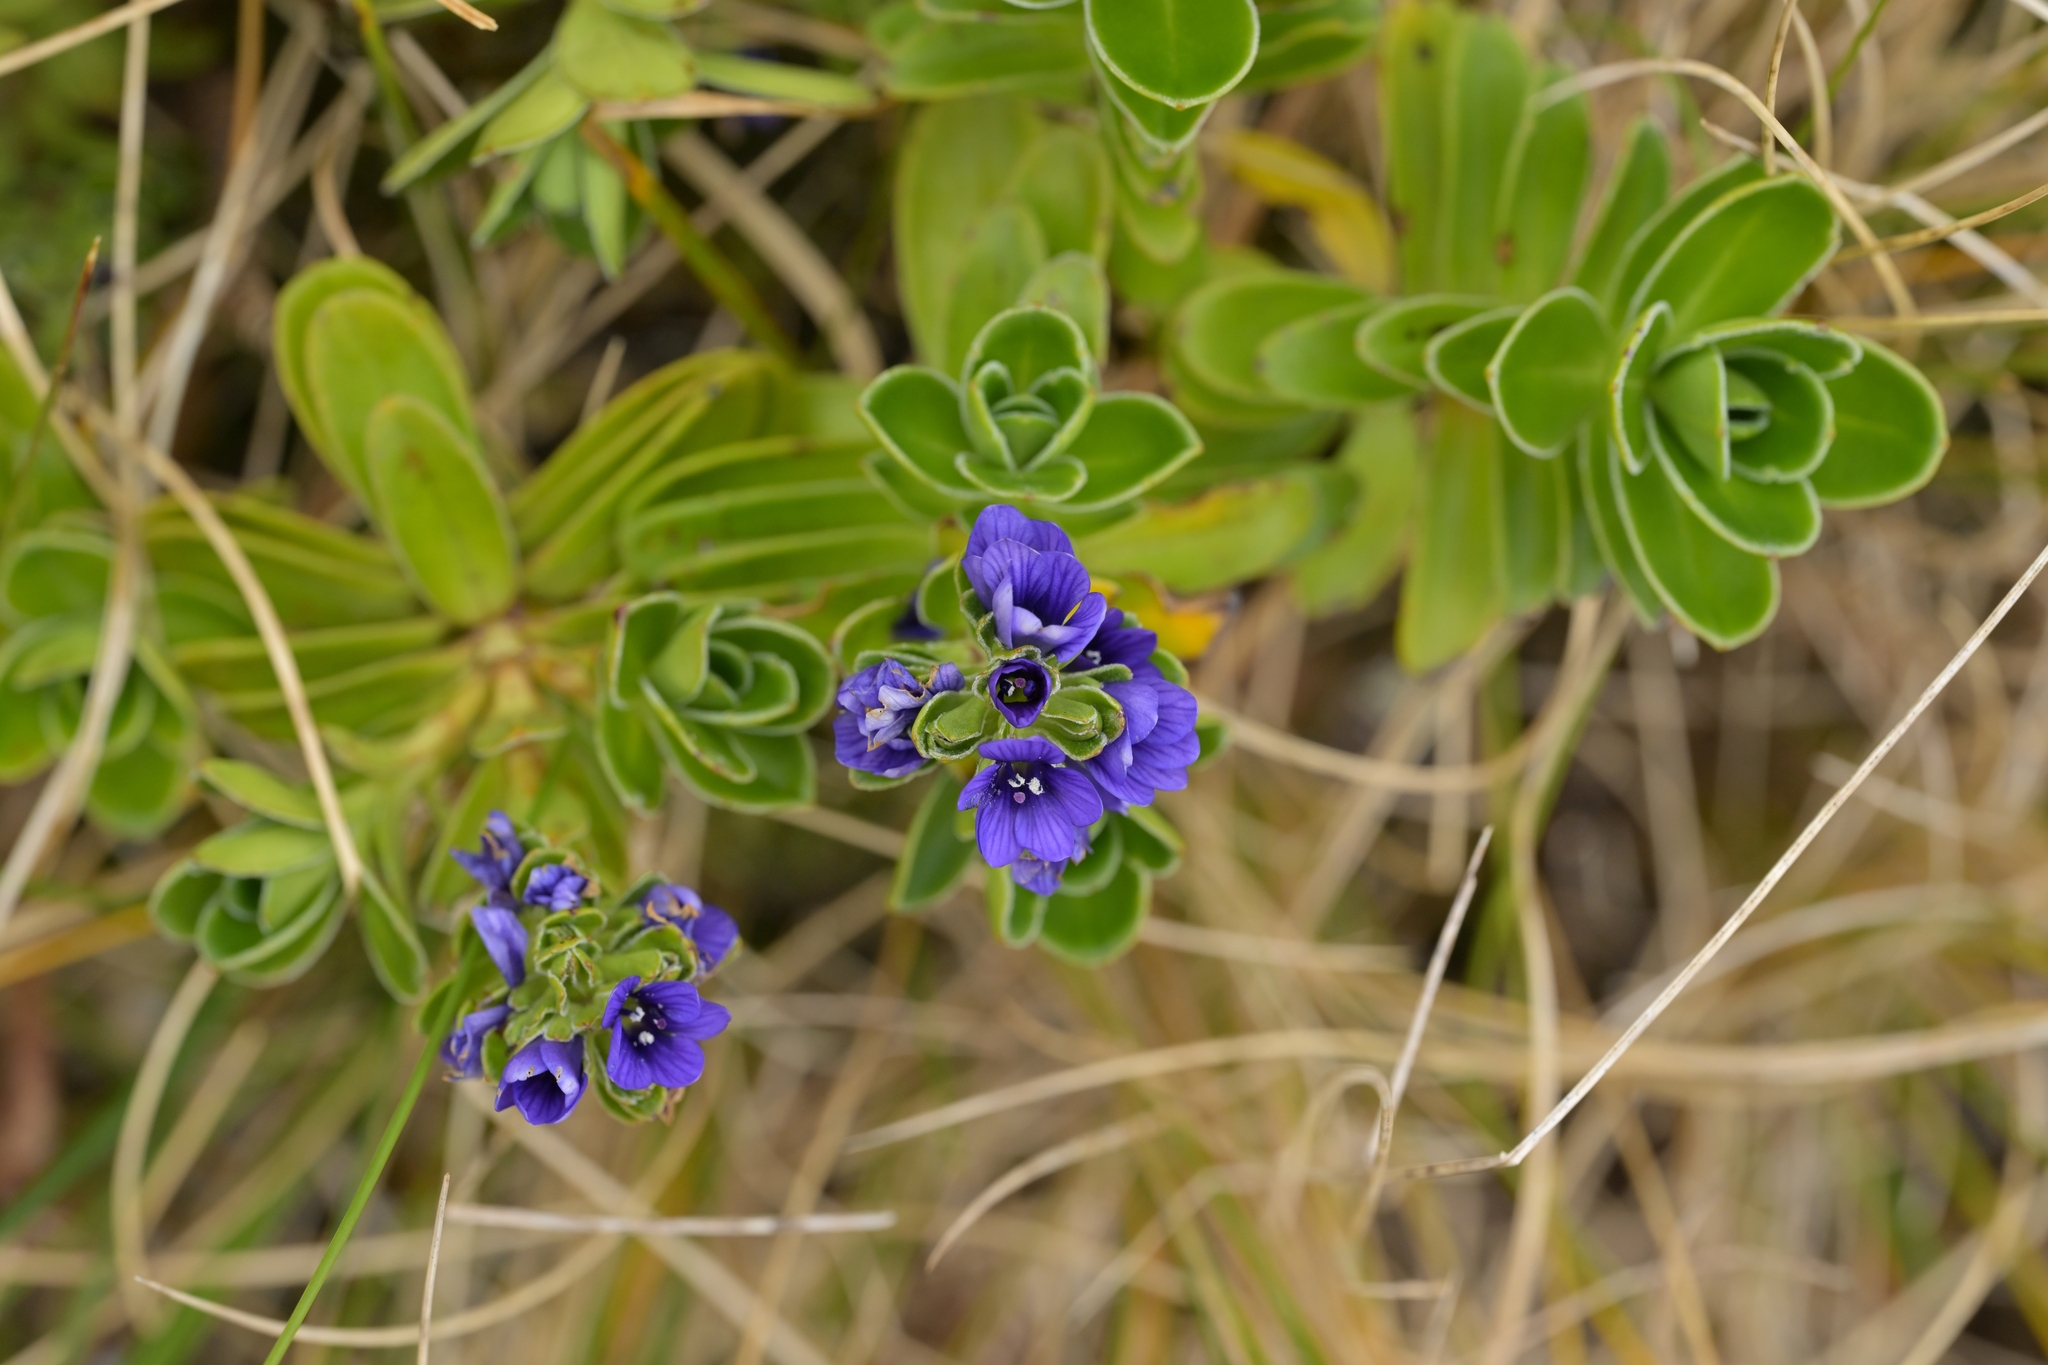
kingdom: Plantae
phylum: Tracheophyta
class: Magnoliopsida
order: Lamiales
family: Plantaginaceae
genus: Veronica
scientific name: Veronica benthamii
